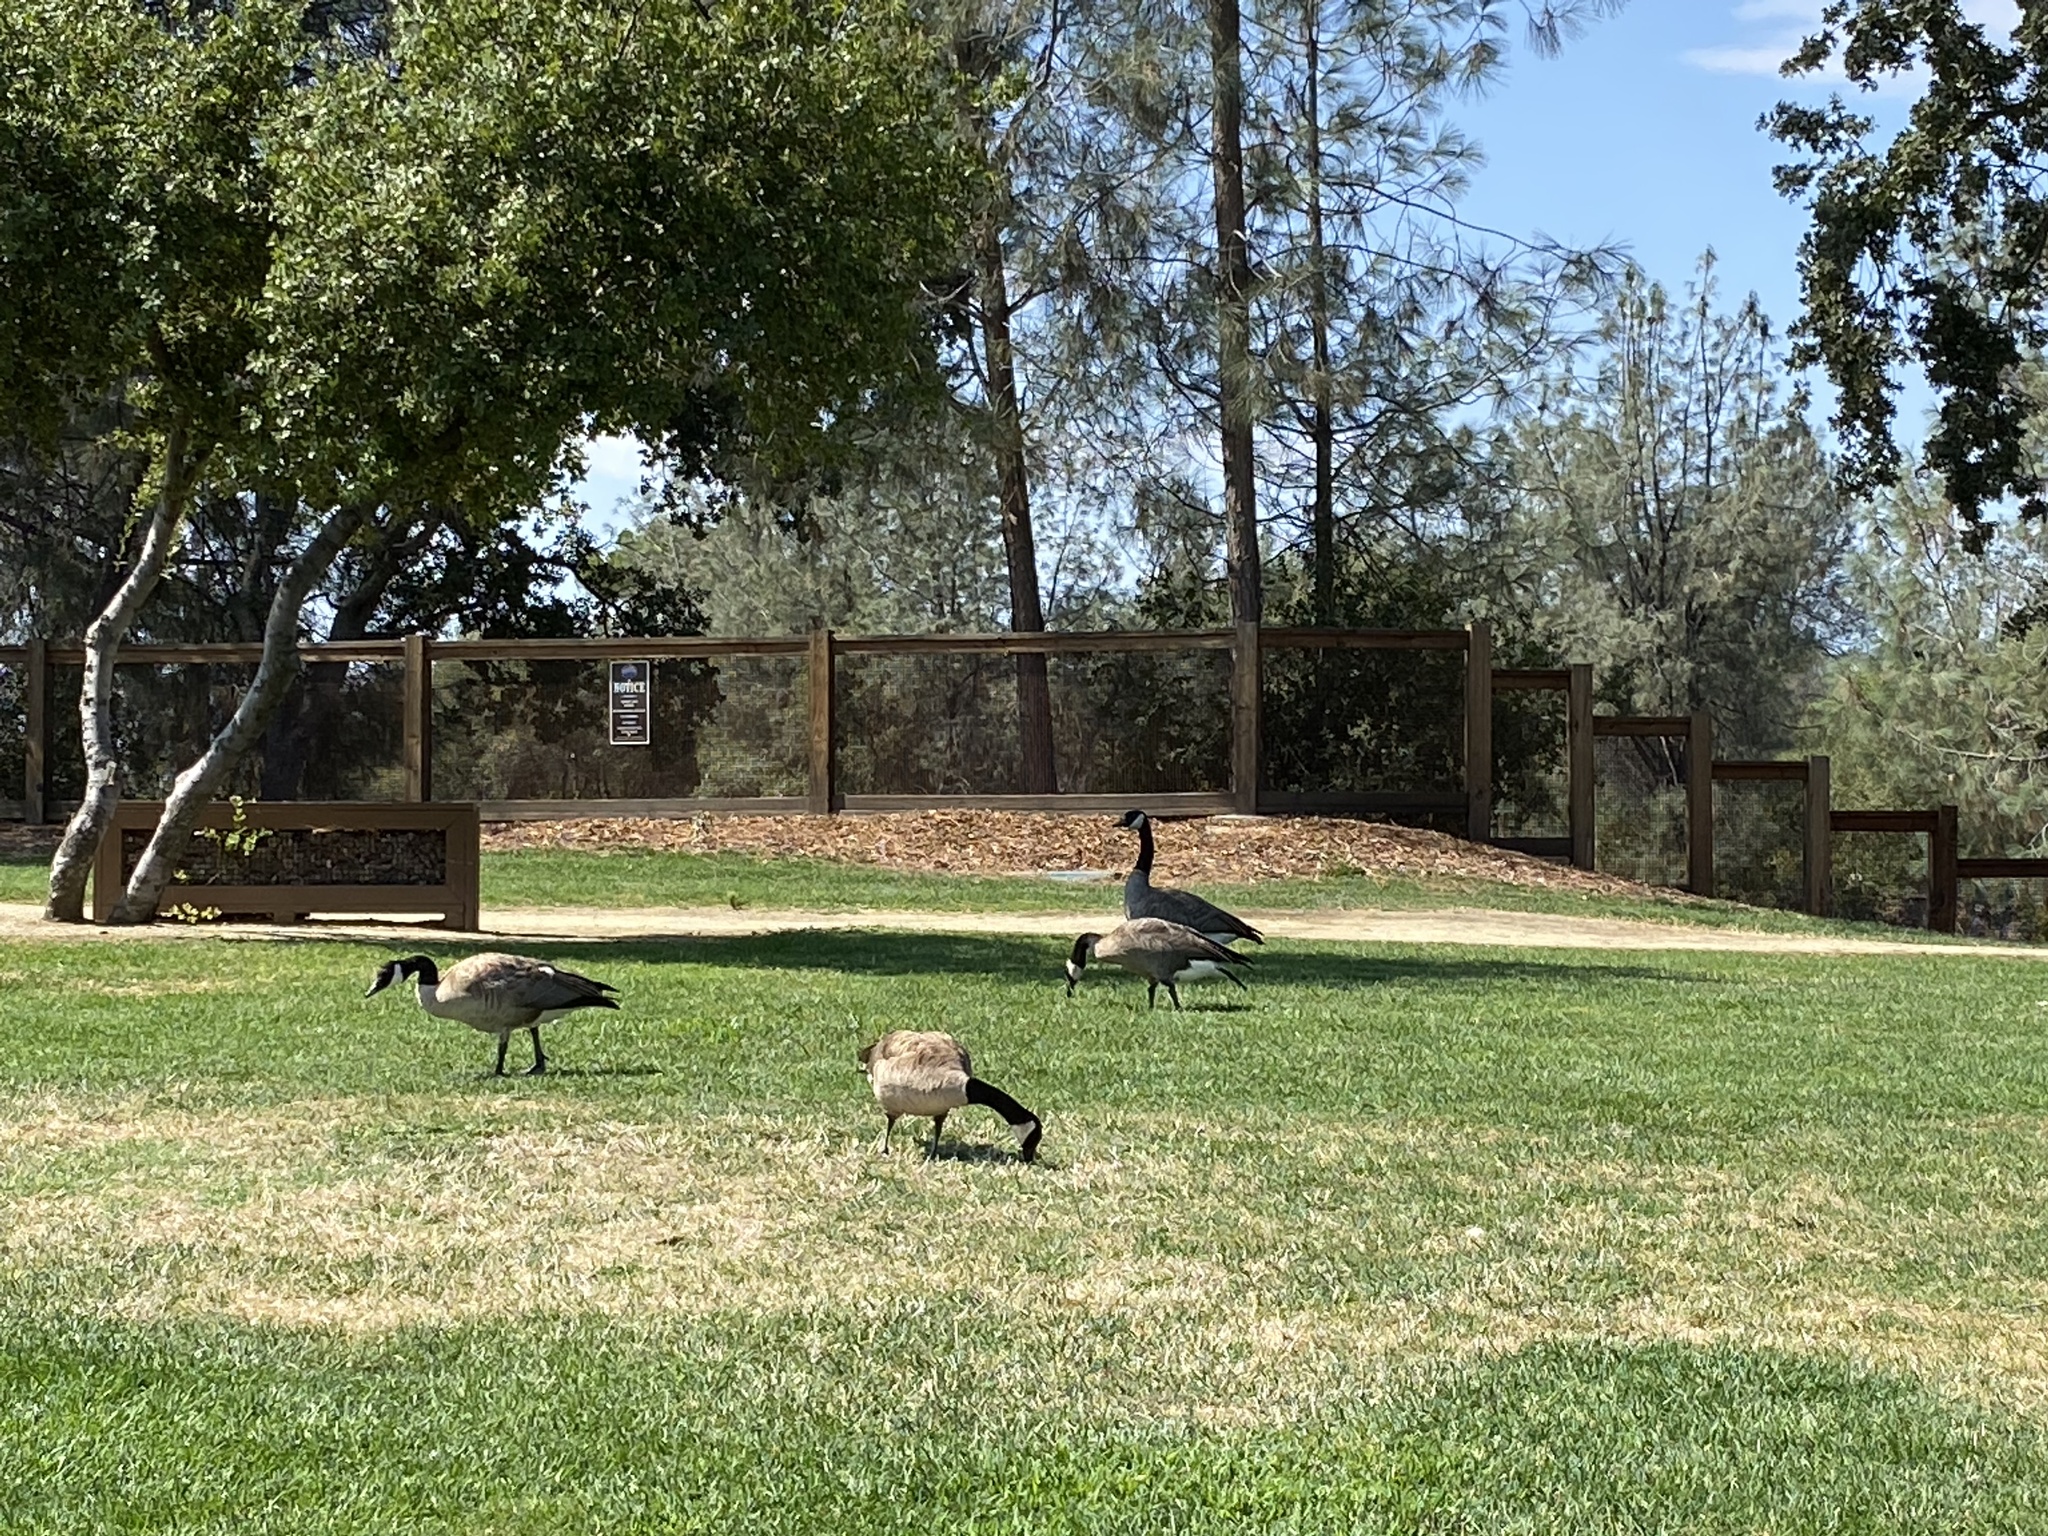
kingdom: Animalia
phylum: Chordata
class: Aves
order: Anseriformes
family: Anatidae
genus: Branta
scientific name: Branta canadensis
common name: Canada goose
